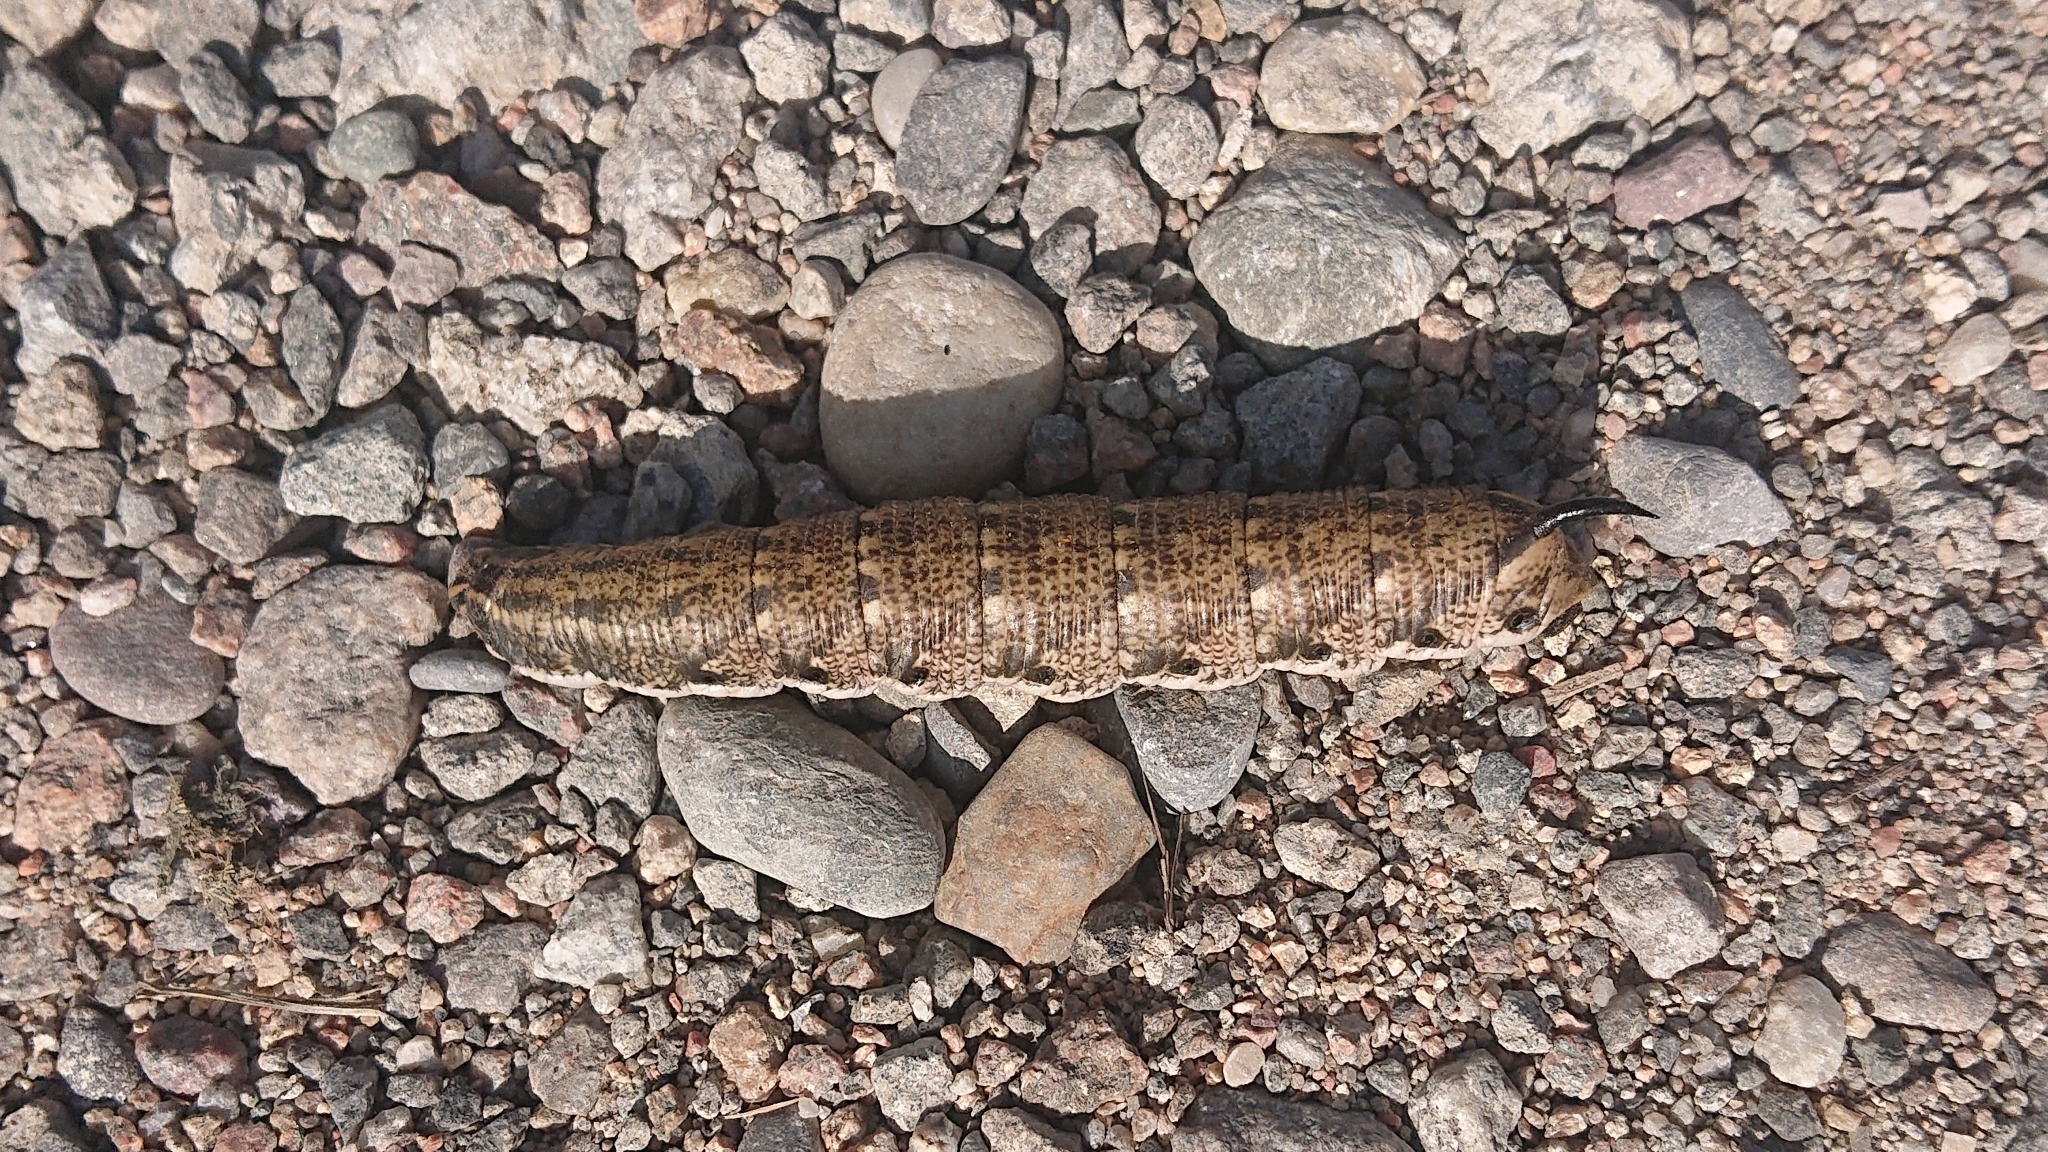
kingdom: Animalia
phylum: Arthropoda
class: Insecta
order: Lepidoptera
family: Sphingidae
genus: Agrius
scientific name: Agrius convolvuli
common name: Convolvulus hawkmoth
